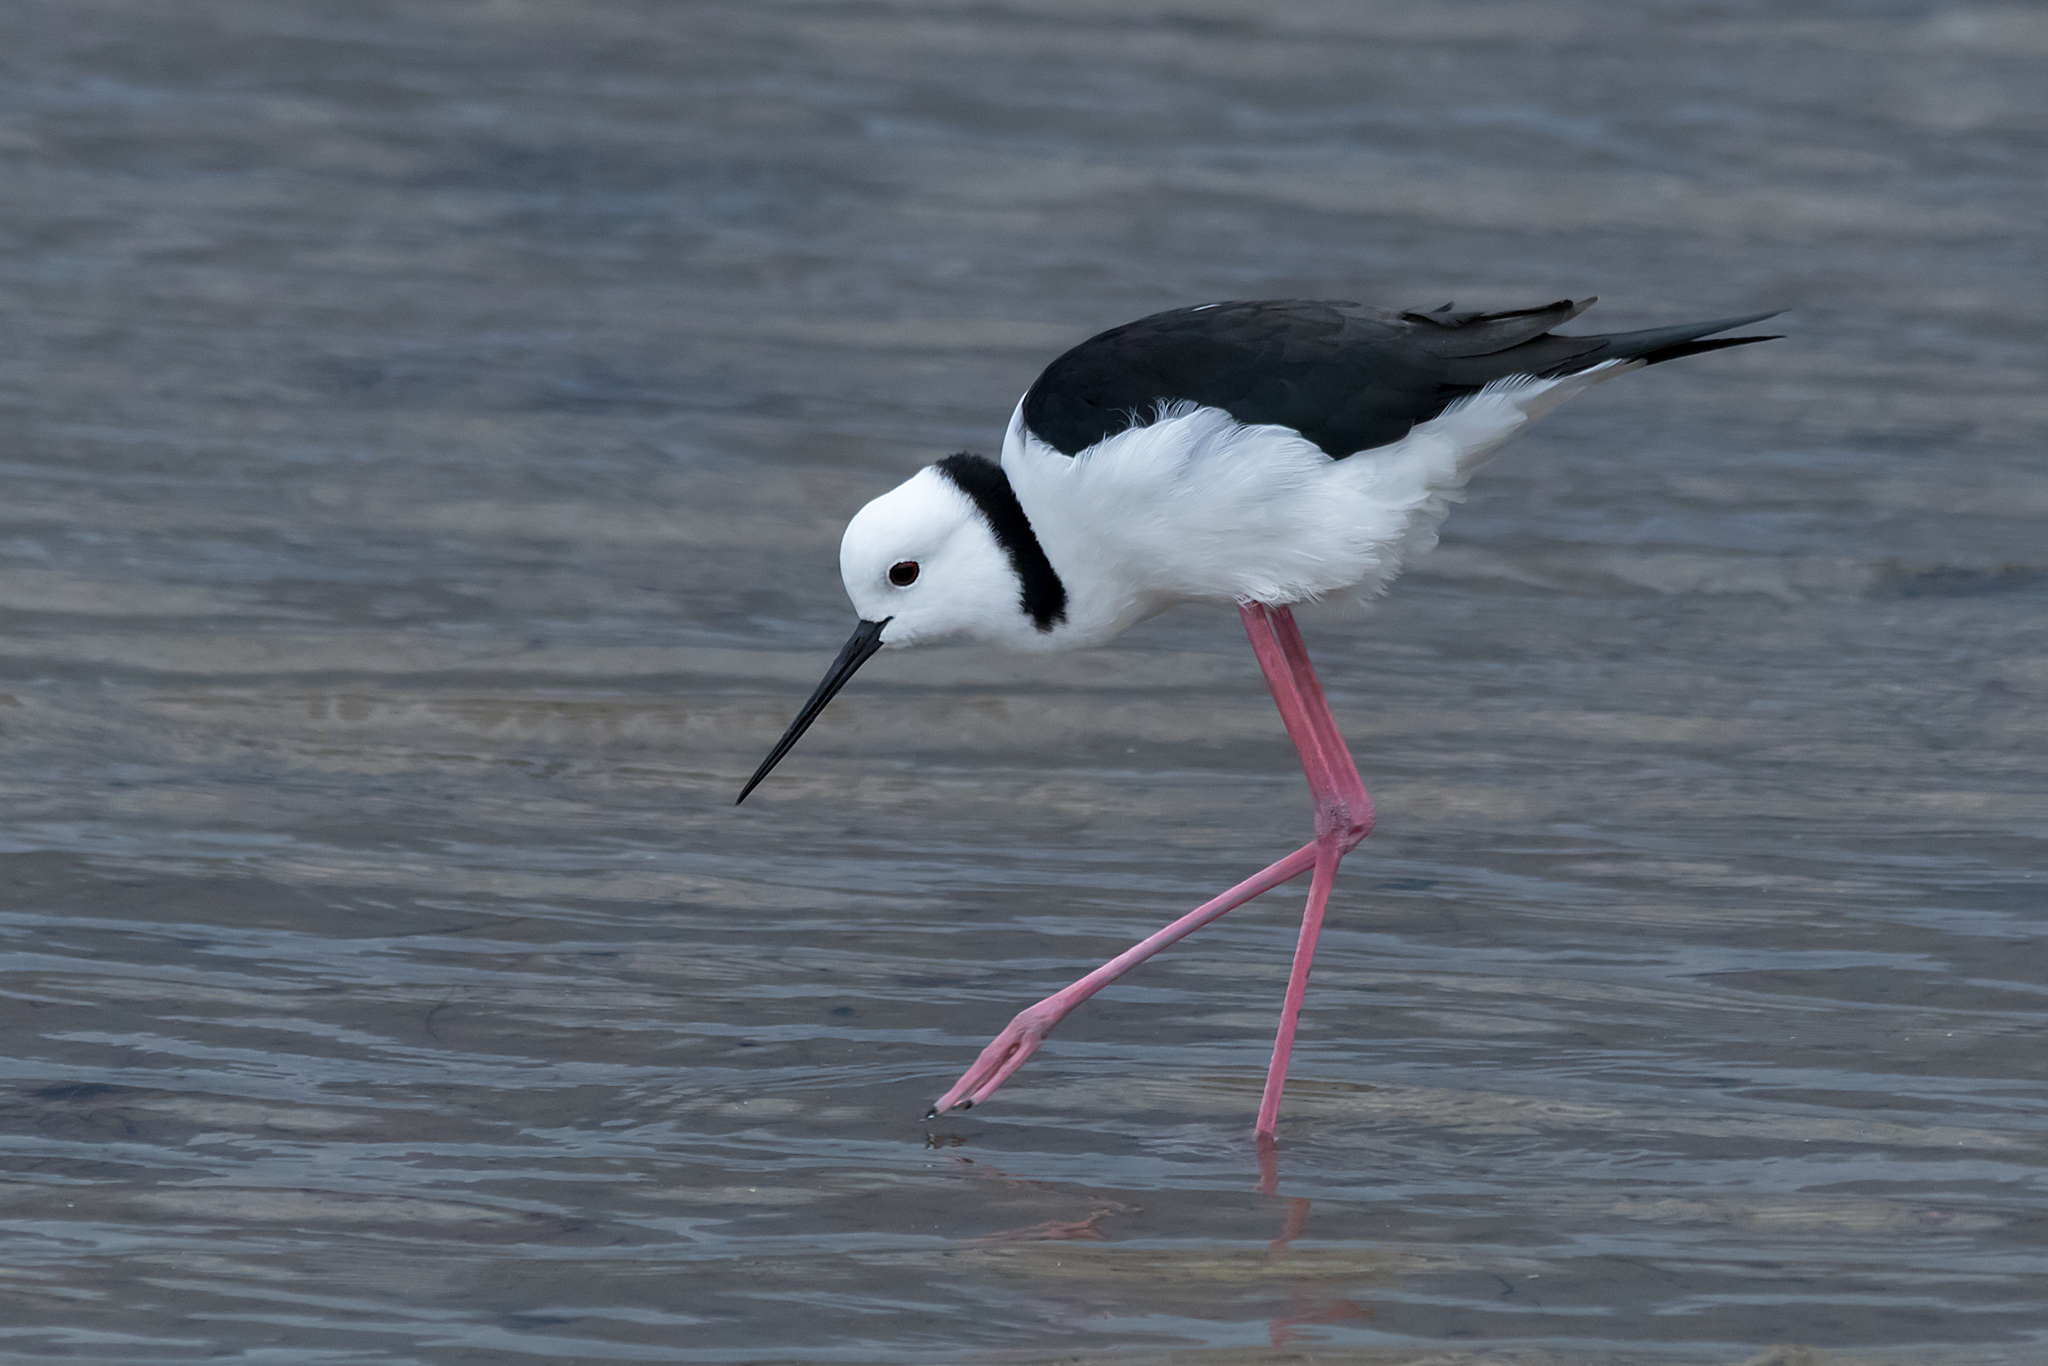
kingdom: Animalia
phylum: Chordata
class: Aves
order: Charadriiformes
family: Recurvirostridae
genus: Himantopus
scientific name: Himantopus leucocephalus
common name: White-headed stilt
